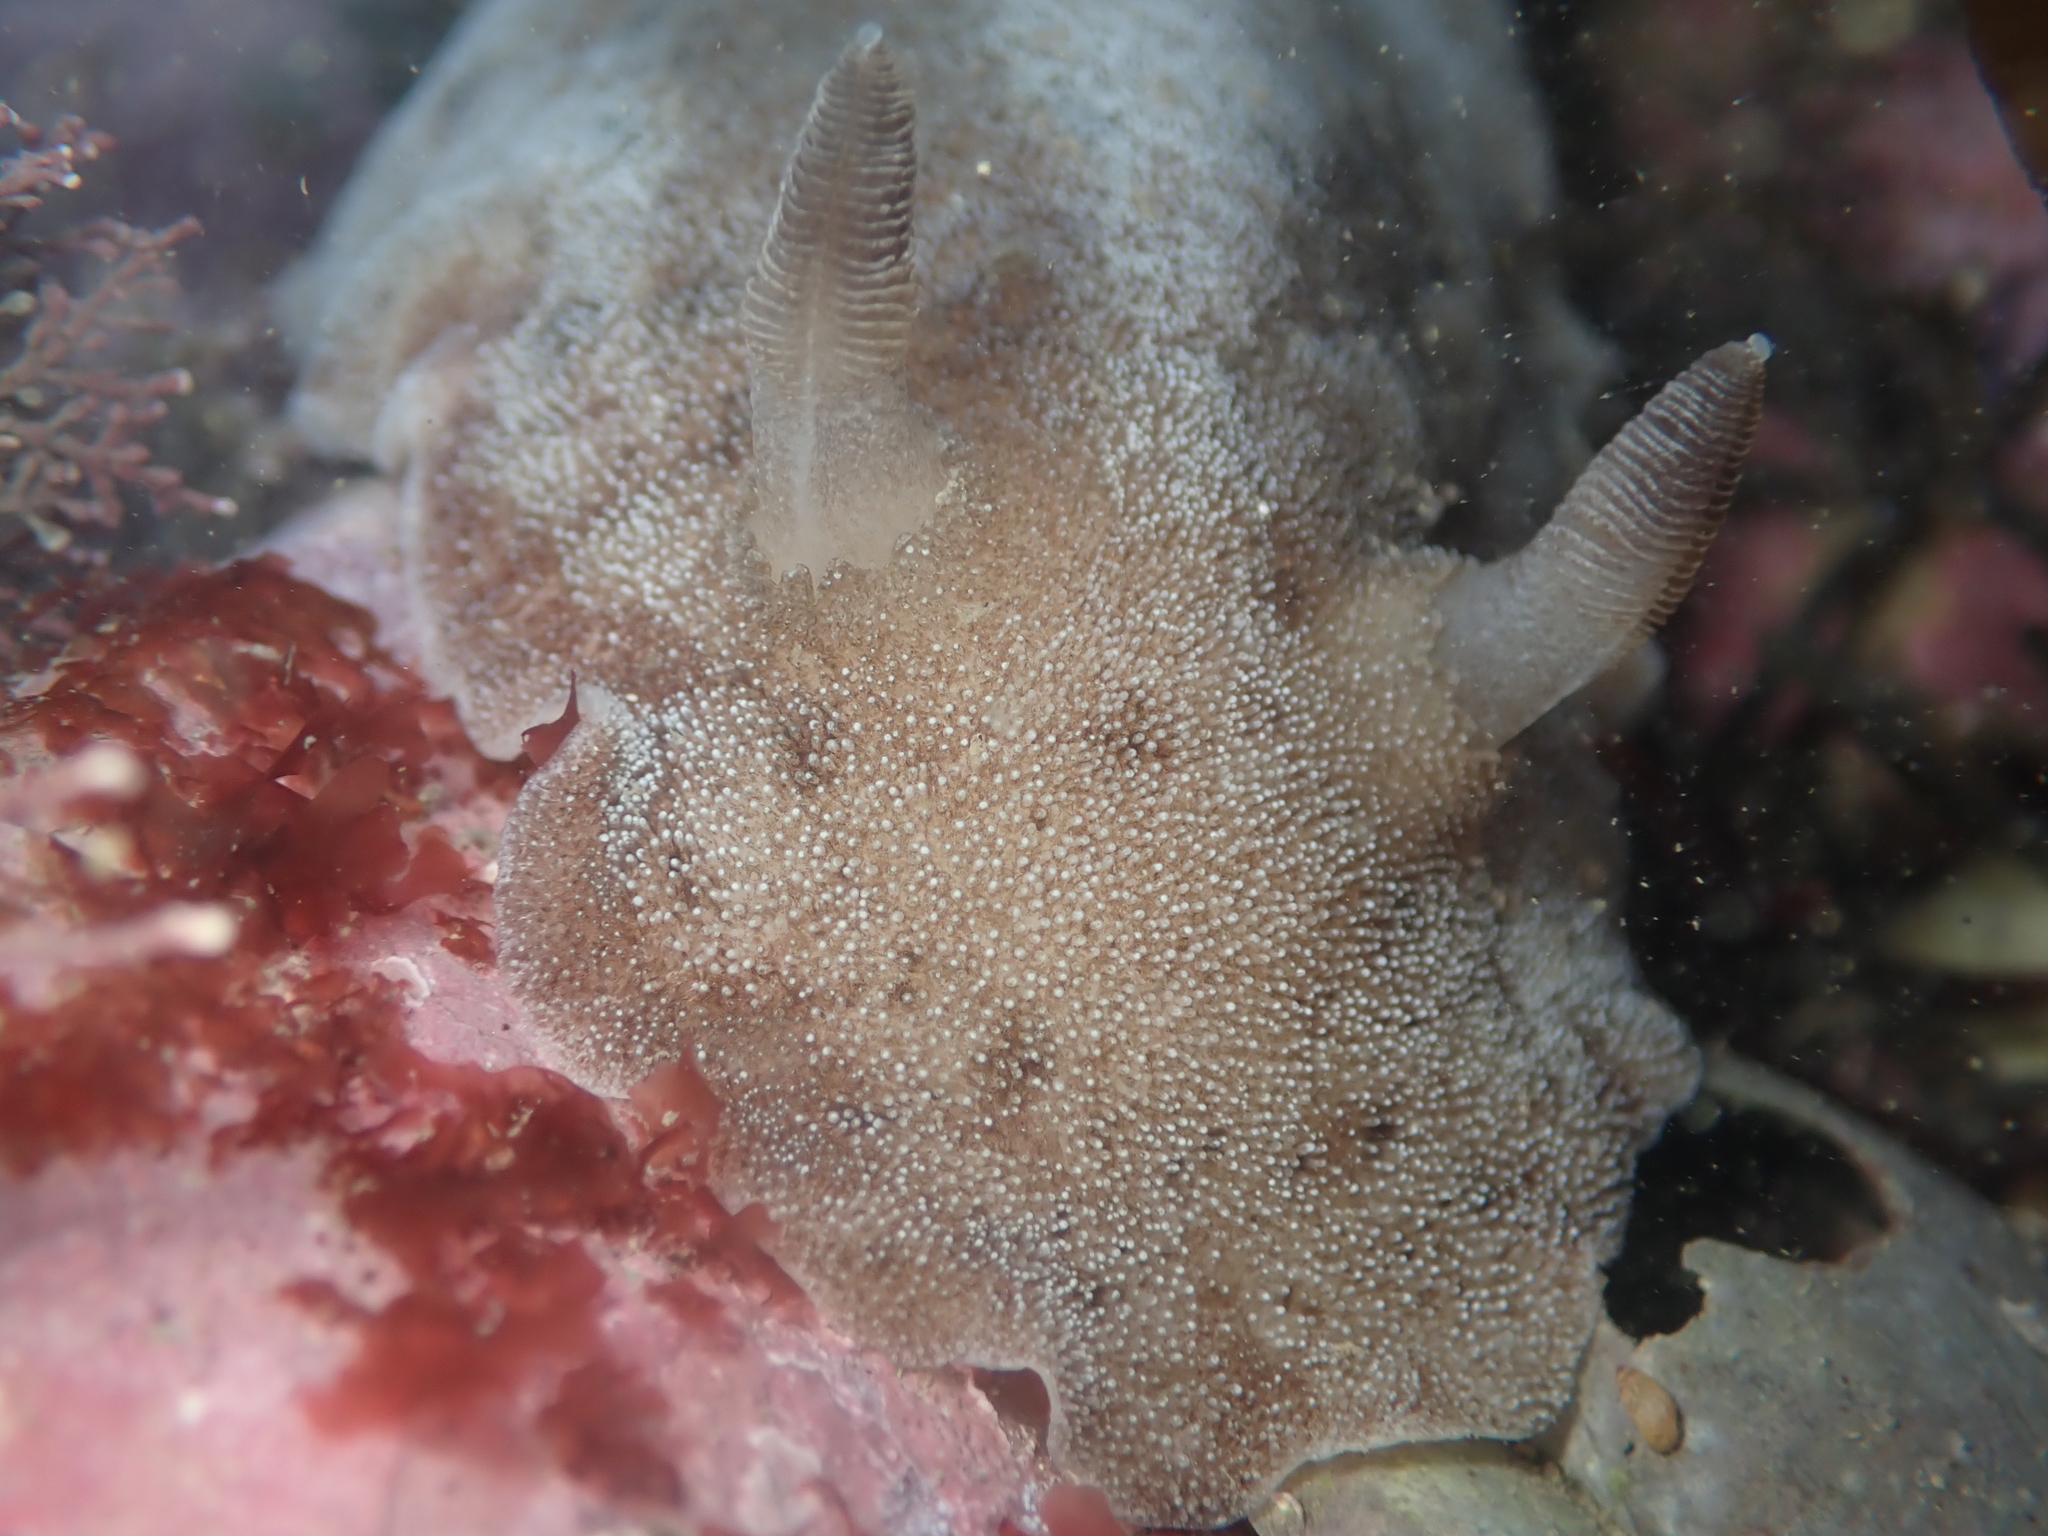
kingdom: Animalia
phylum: Mollusca
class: Gastropoda
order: Nudibranchia
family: Discodorididae
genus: Alloiodoris
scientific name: Alloiodoris lanuginata
